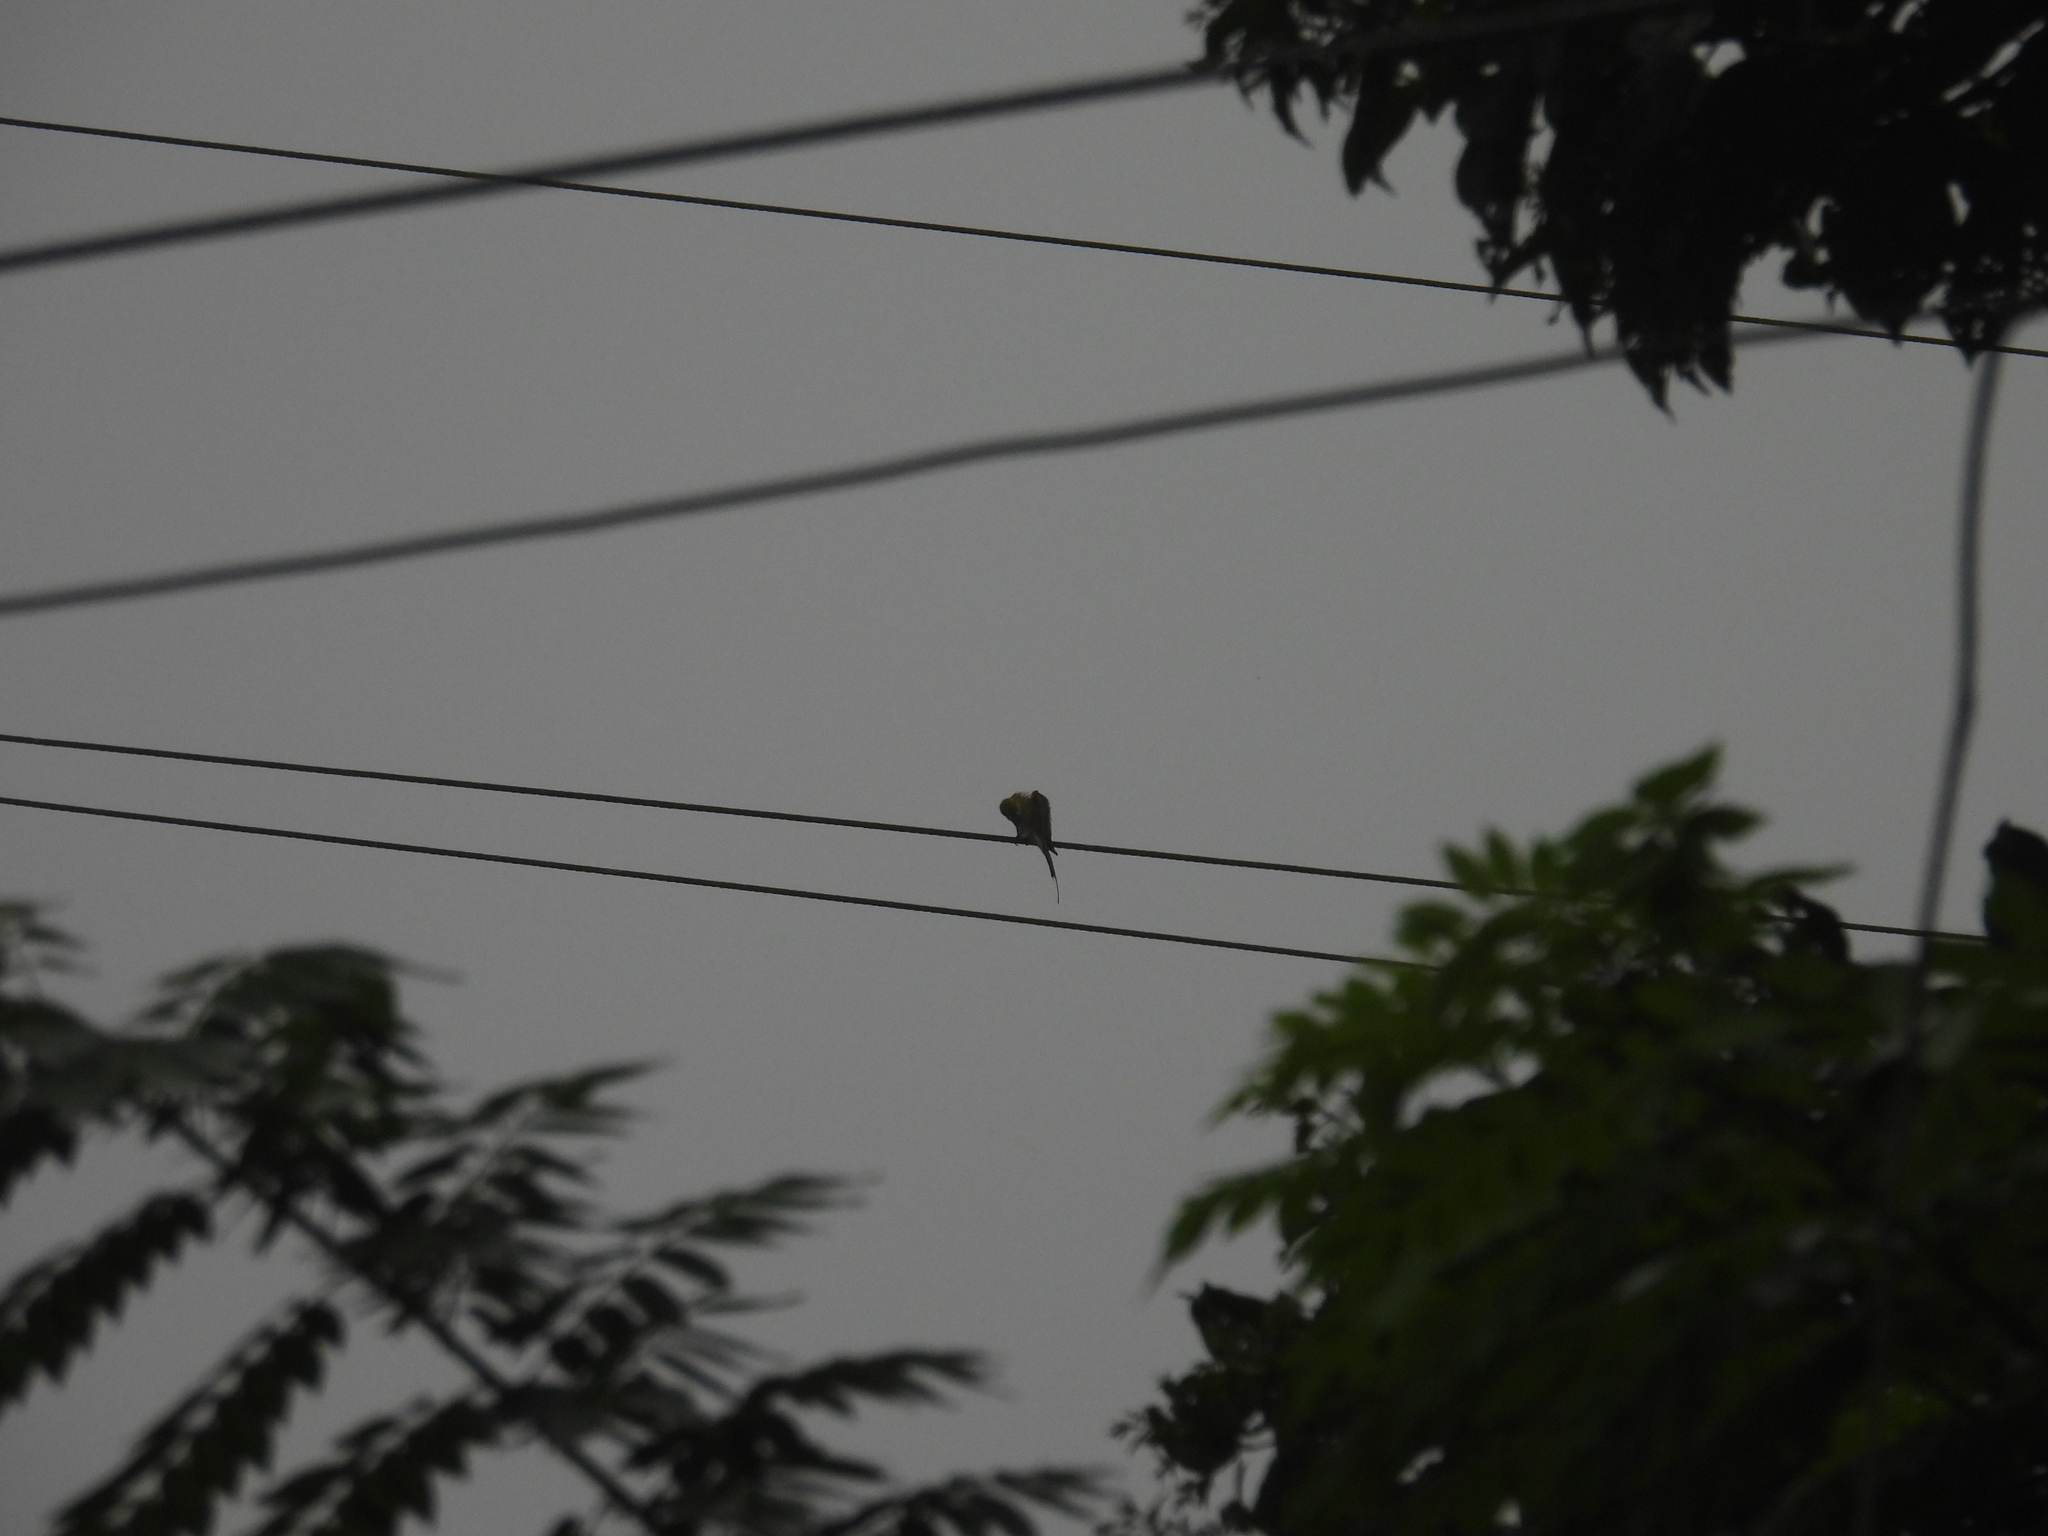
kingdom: Animalia
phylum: Chordata
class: Aves
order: Coraciiformes
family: Meropidae
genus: Merops
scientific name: Merops orientalis
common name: Green bee-eater
